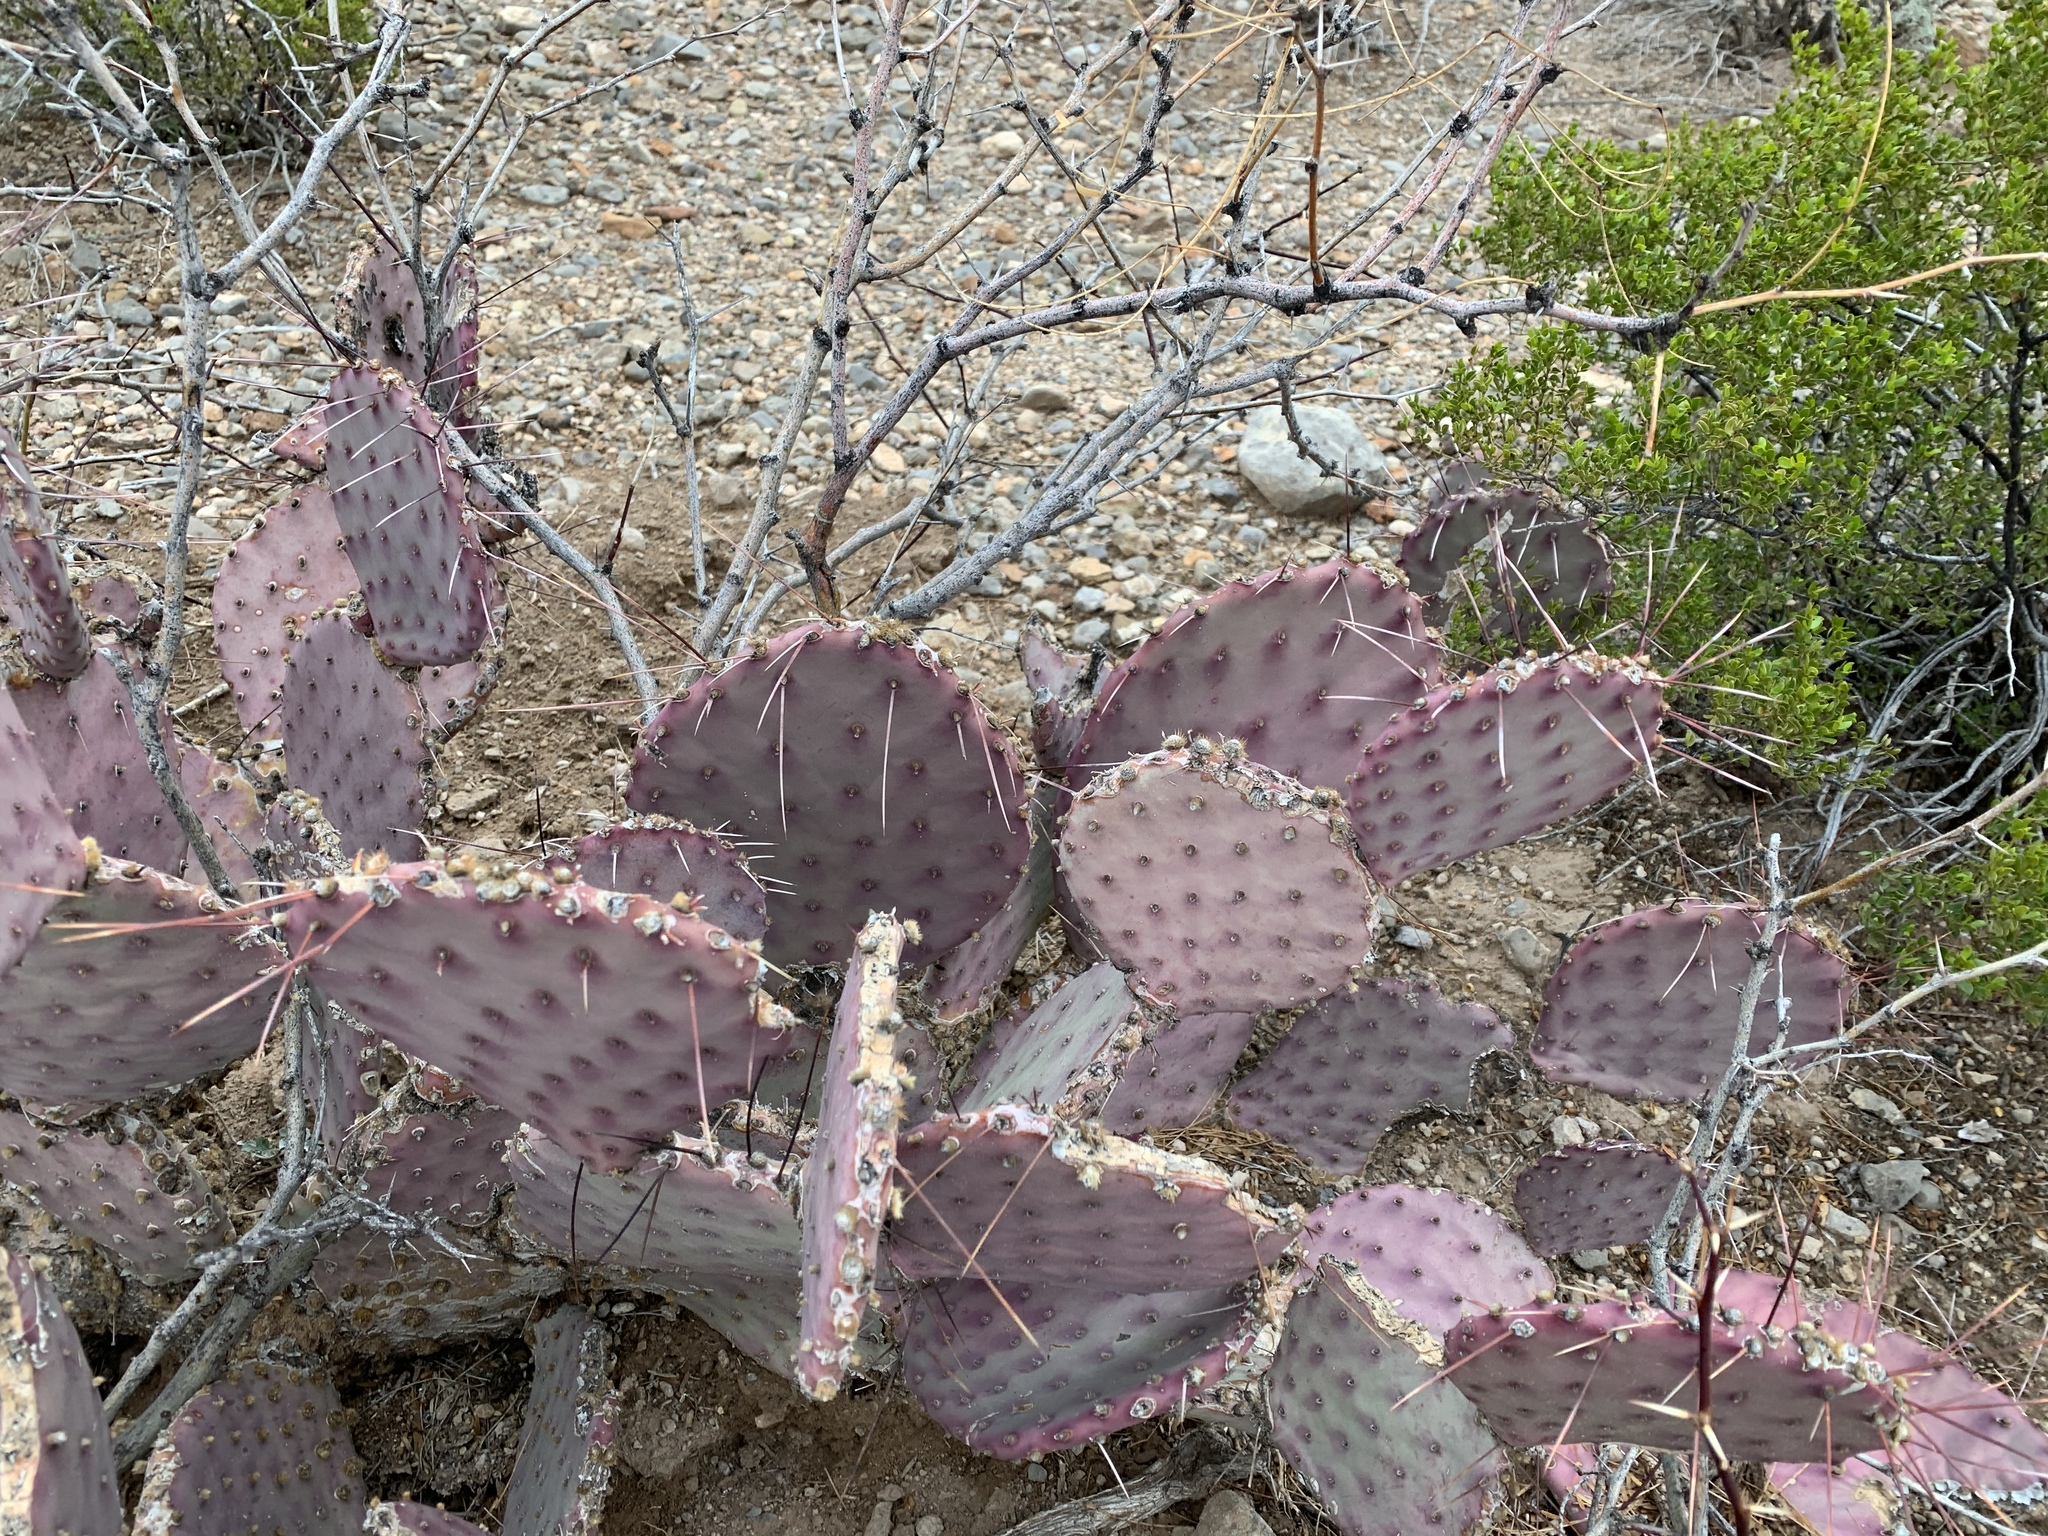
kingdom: Plantae
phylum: Tracheophyta
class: Magnoliopsida
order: Caryophyllales
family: Cactaceae
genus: Opuntia
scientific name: Opuntia macrocentra
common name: Purple prickly-pear
